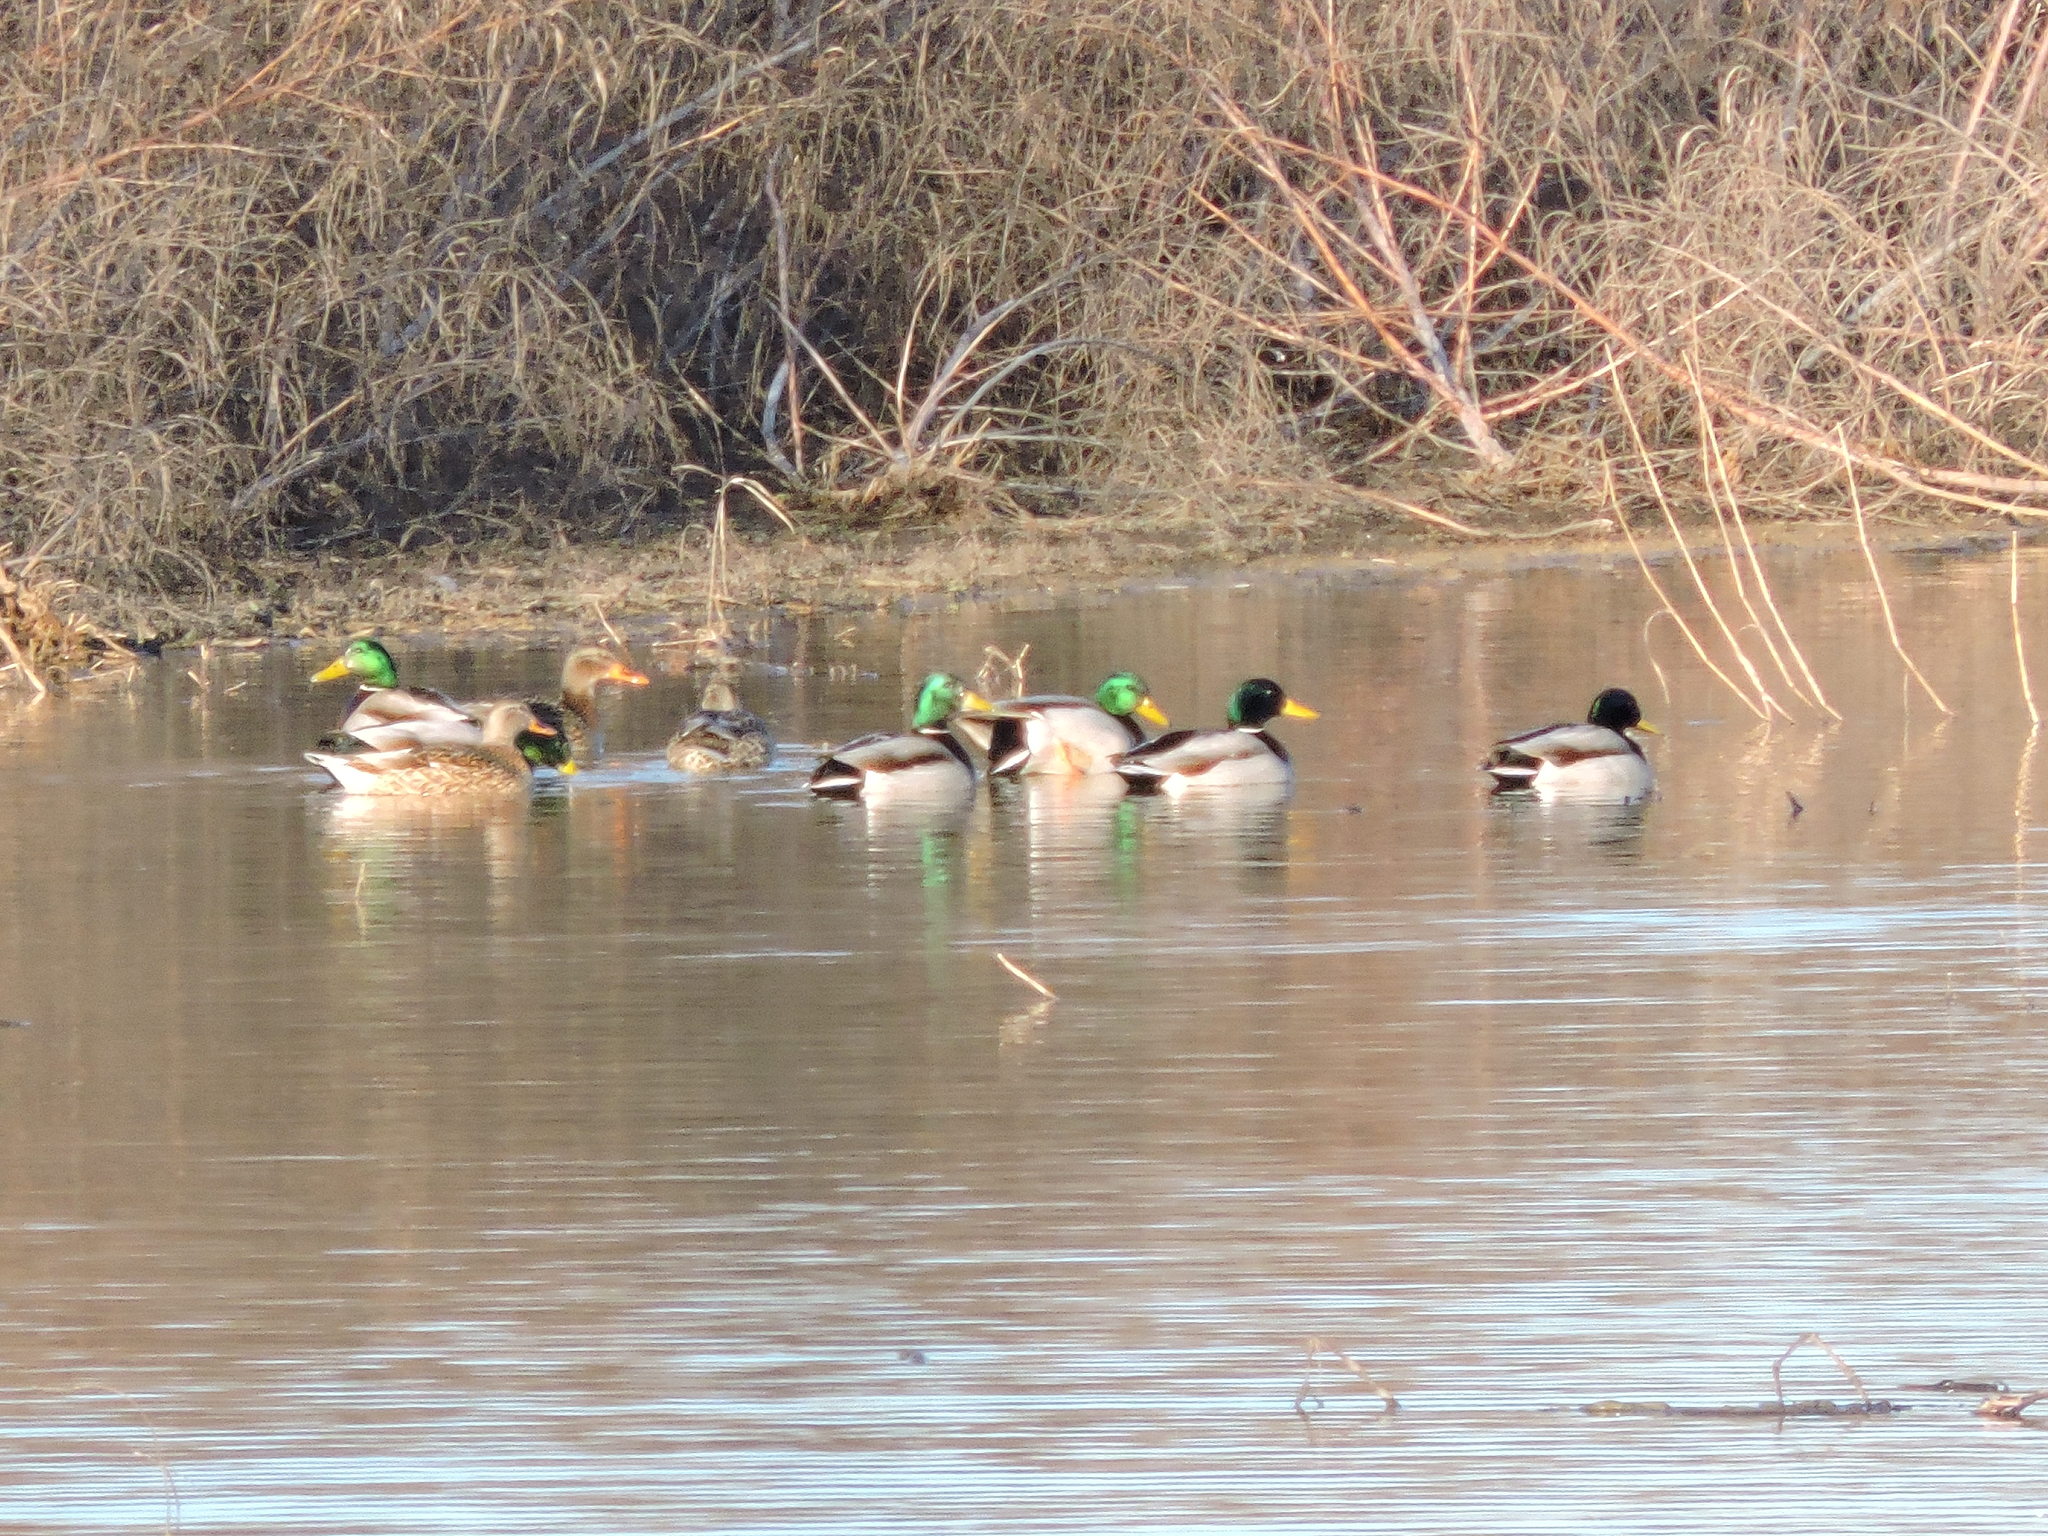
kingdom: Animalia
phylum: Chordata
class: Aves
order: Anseriformes
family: Anatidae
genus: Anas
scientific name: Anas platyrhynchos
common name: Mallard
